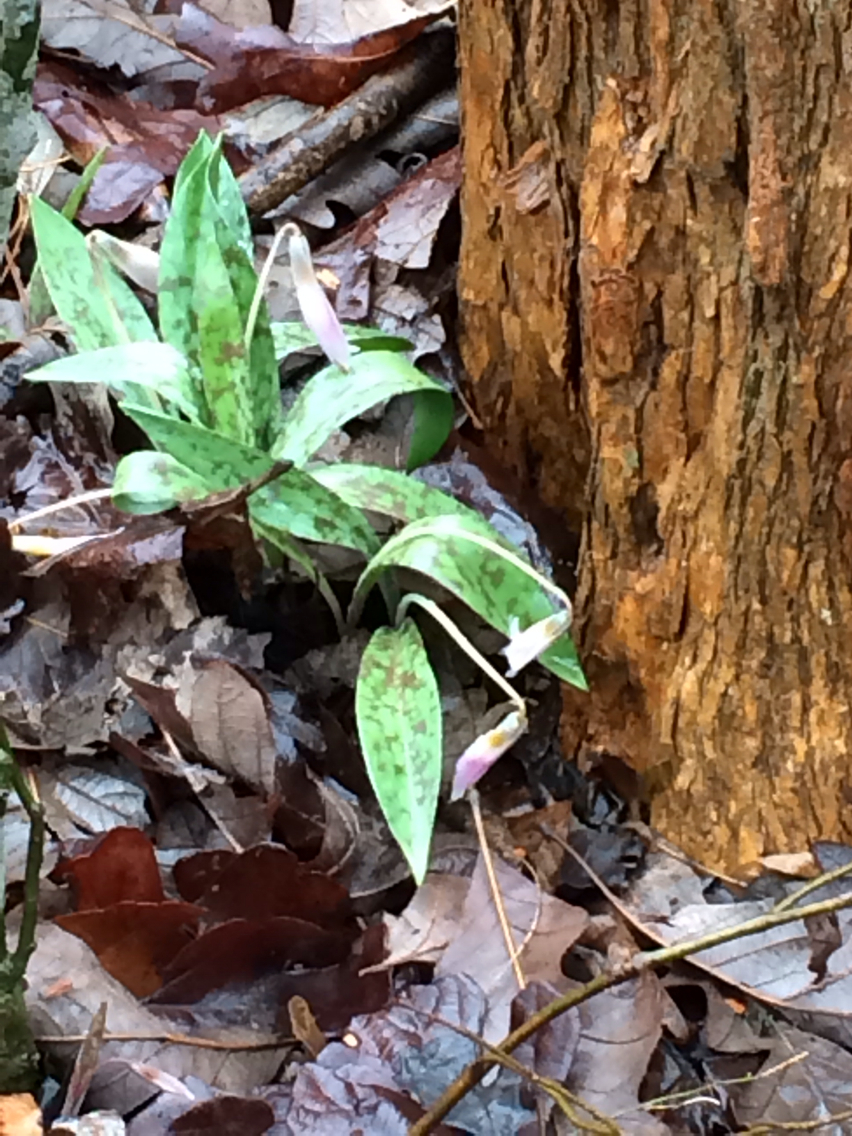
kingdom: Plantae
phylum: Tracheophyta
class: Liliopsida
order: Liliales
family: Liliaceae
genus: Erythronium
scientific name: Erythronium albidum
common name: White trout-lily
